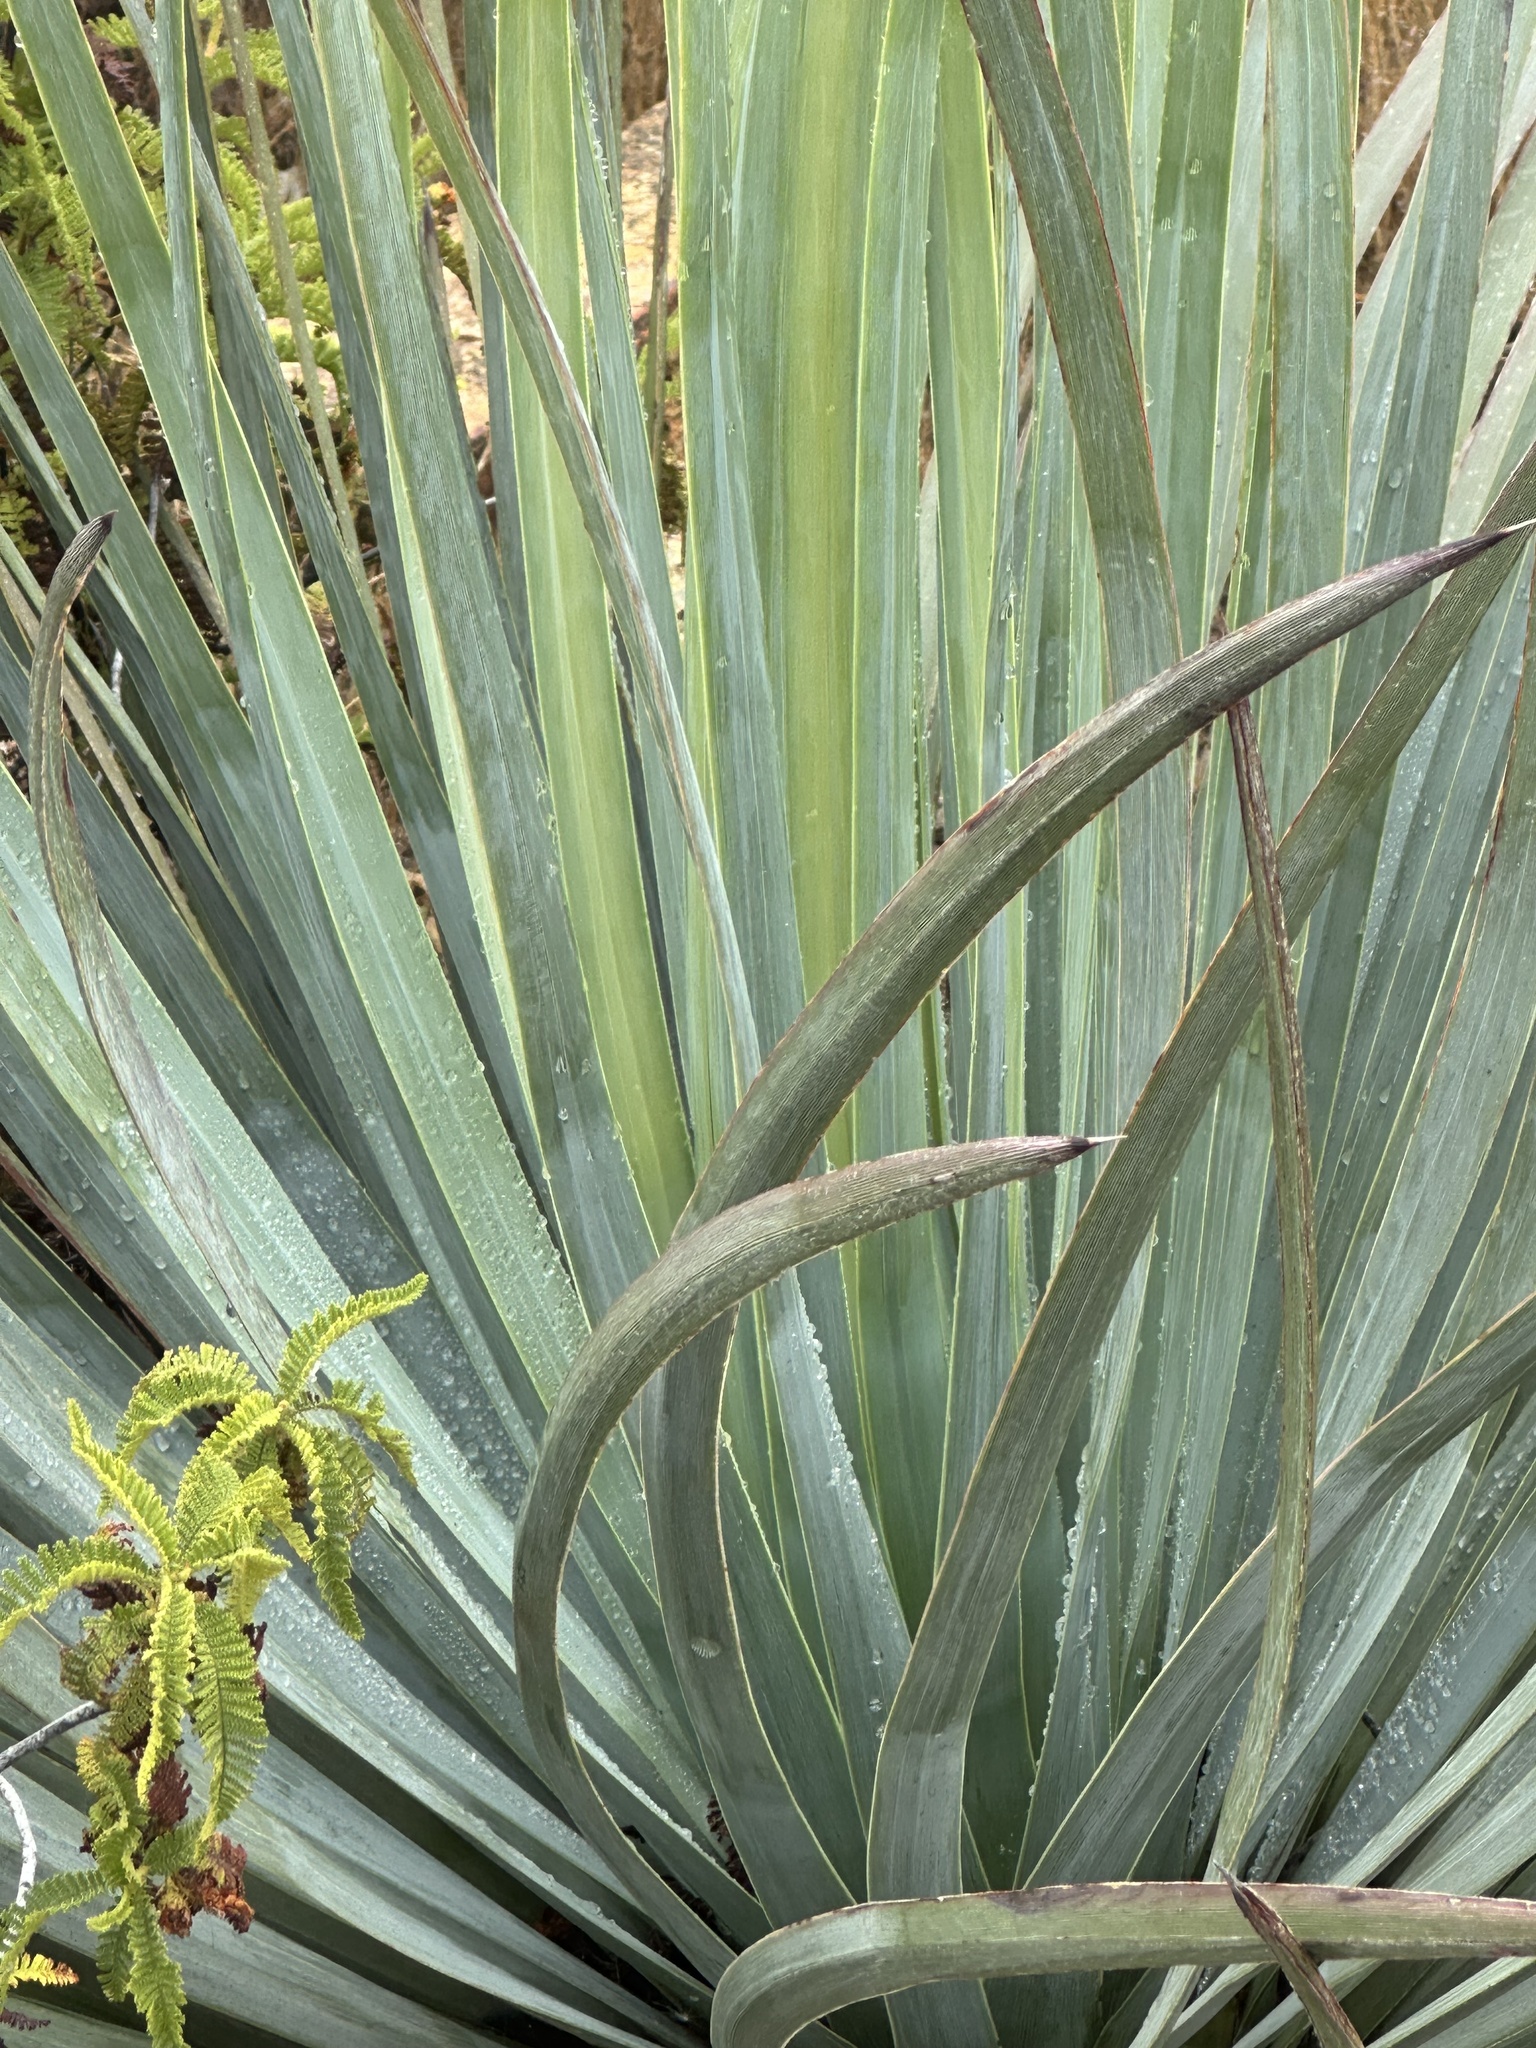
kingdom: Plantae
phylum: Tracheophyta
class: Liliopsida
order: Asparagales
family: Asparagaceae
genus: Hesperoyucca
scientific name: Hesperoyucca whipplei
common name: Our lord's-candle
